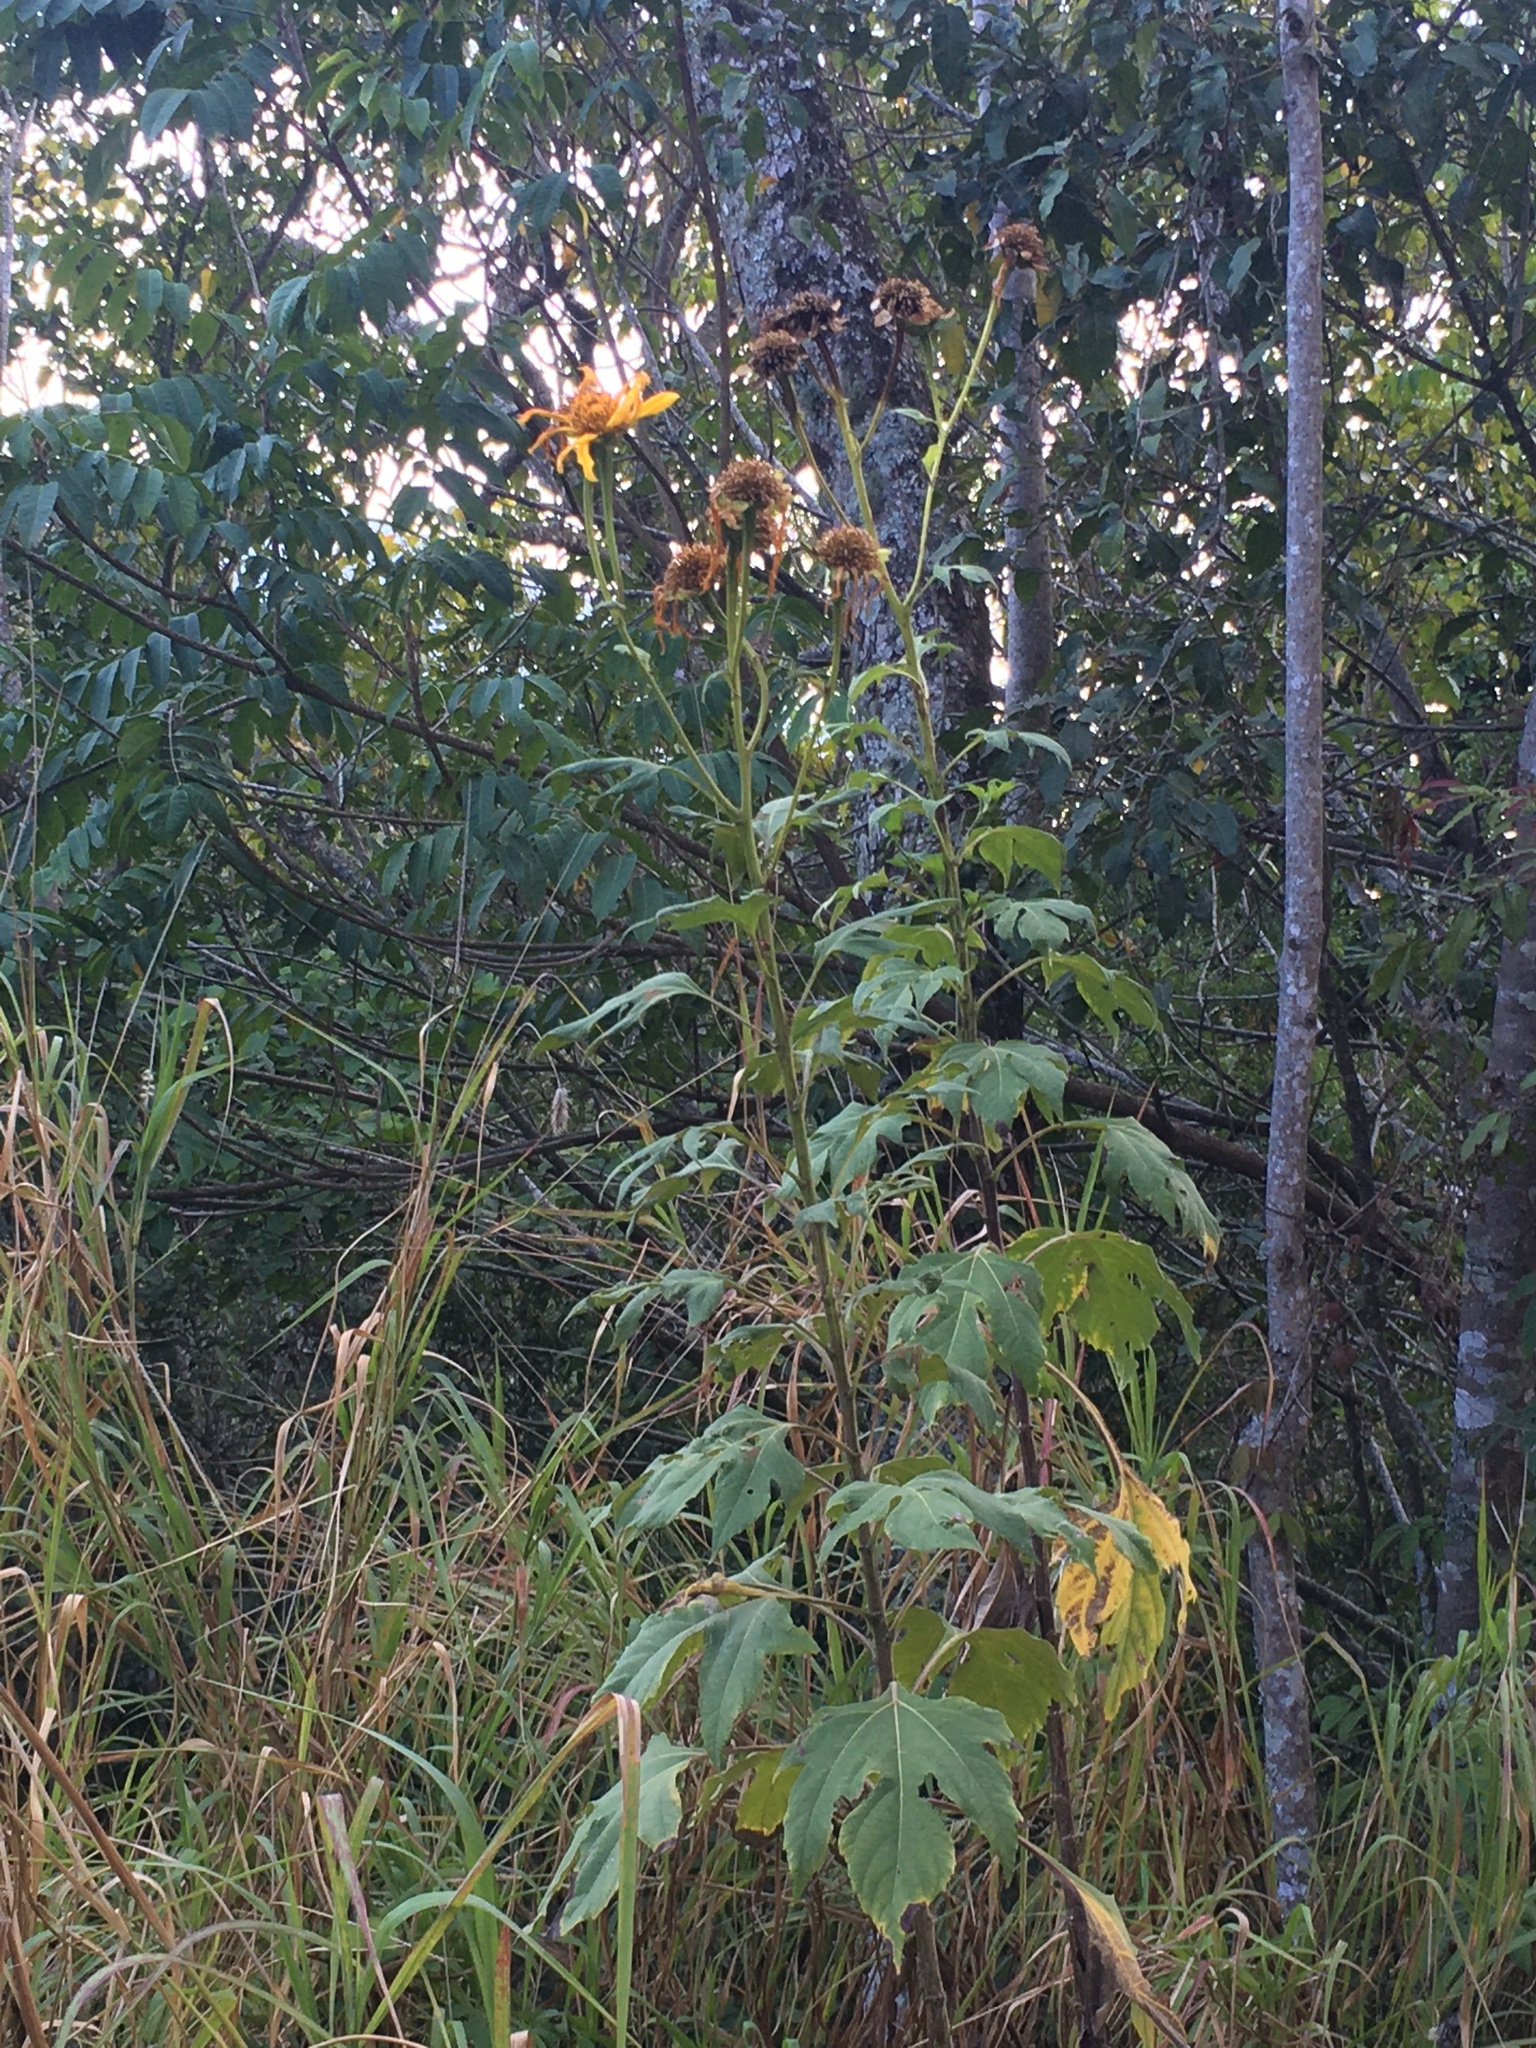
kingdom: Plantae
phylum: Tracheophyta
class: Magnoliopsida
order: Asterales
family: Asteraceae
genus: Tithonia
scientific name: Tithonia diversifolia
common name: Tree marigold
